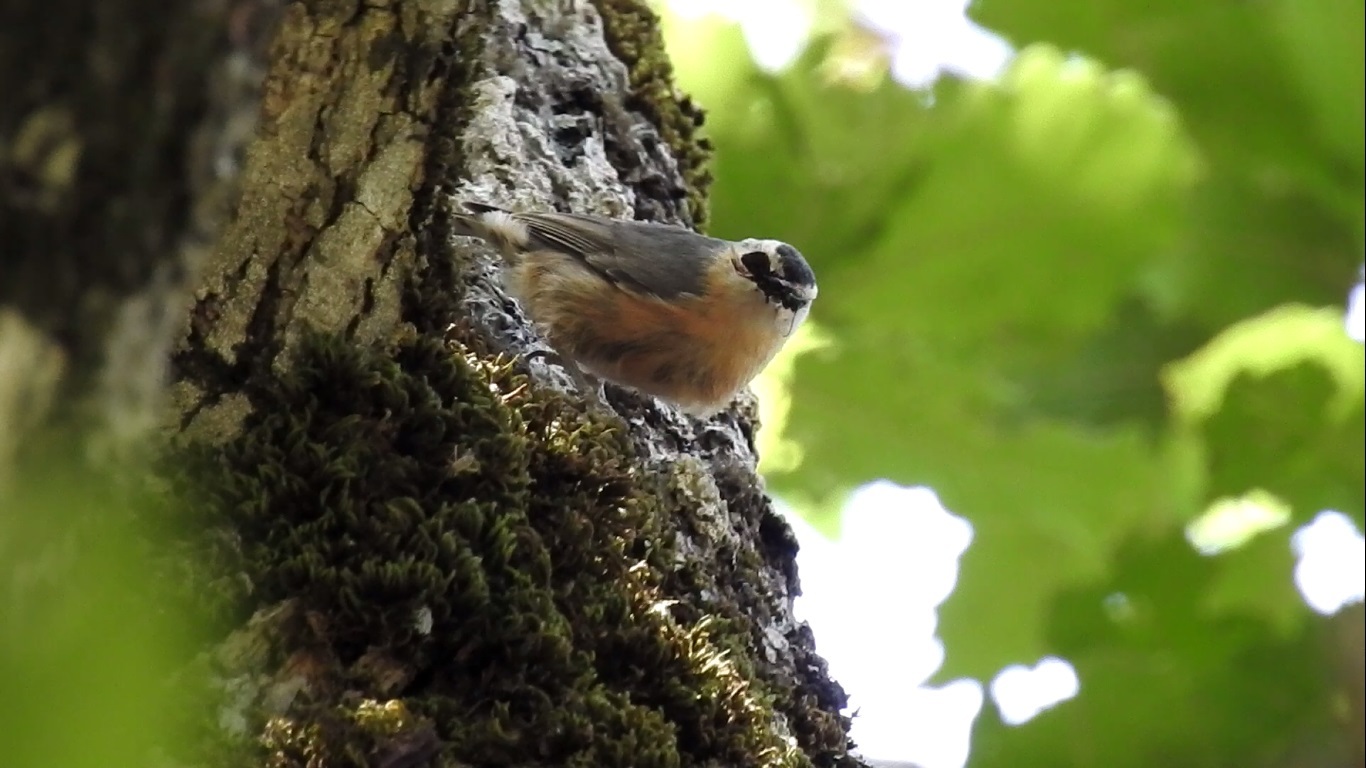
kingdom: Animalia
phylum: Chordata
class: Aves
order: Passeriformes
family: Sittidae
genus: Sitta
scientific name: Sitta ledanti
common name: Algerian nuthatch
